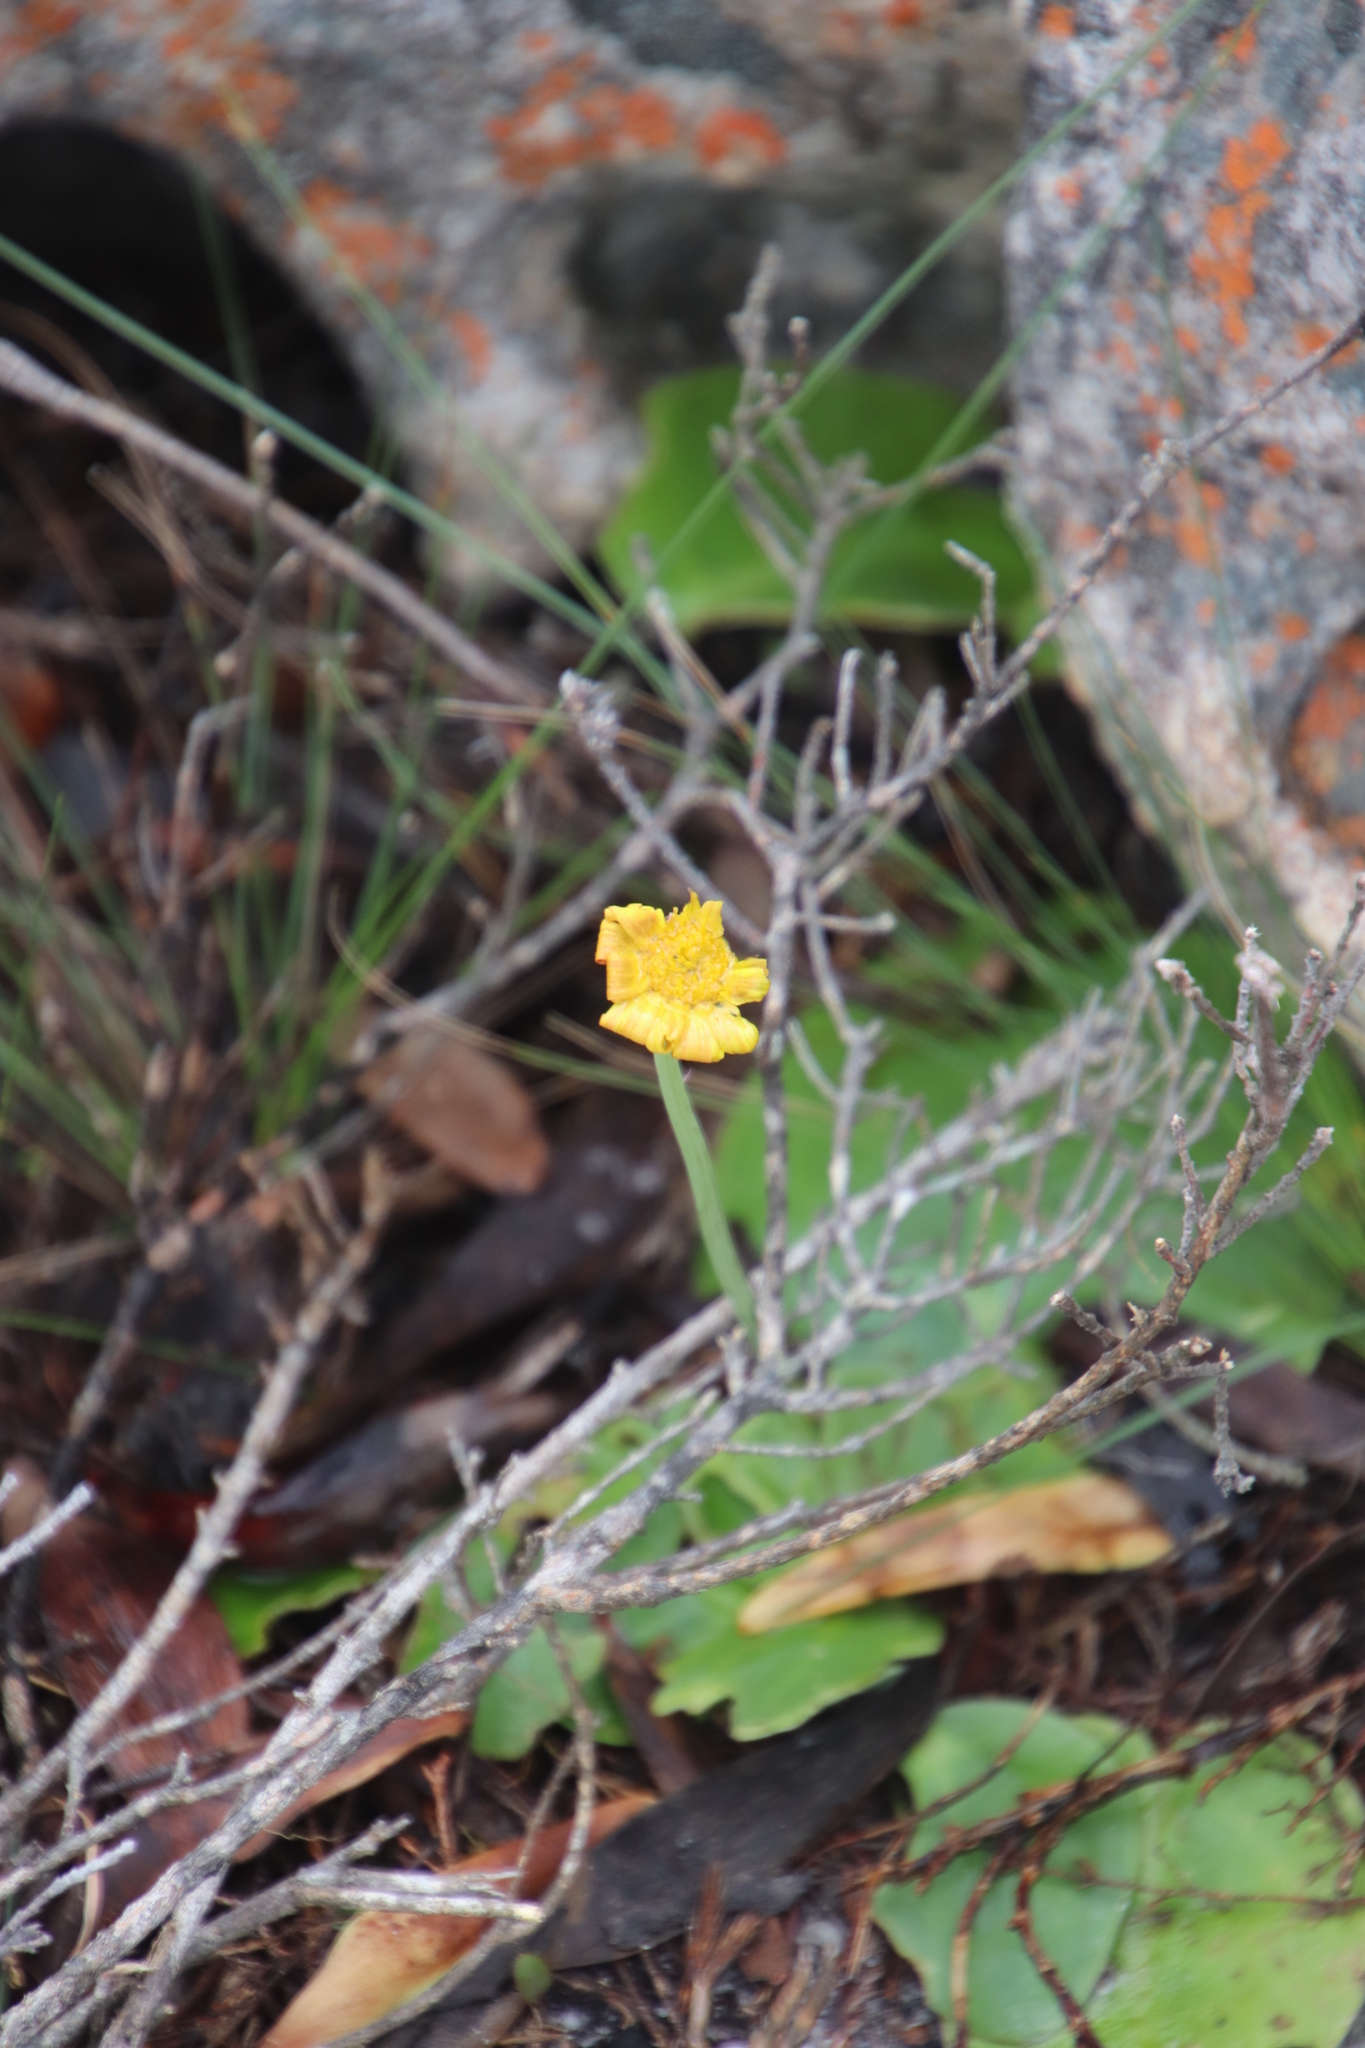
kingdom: Plantae
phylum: Tracheophyta
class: Magnoliopsida
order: Asterales
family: Asteraceae
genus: Othonna
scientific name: Othonna bulbosa
